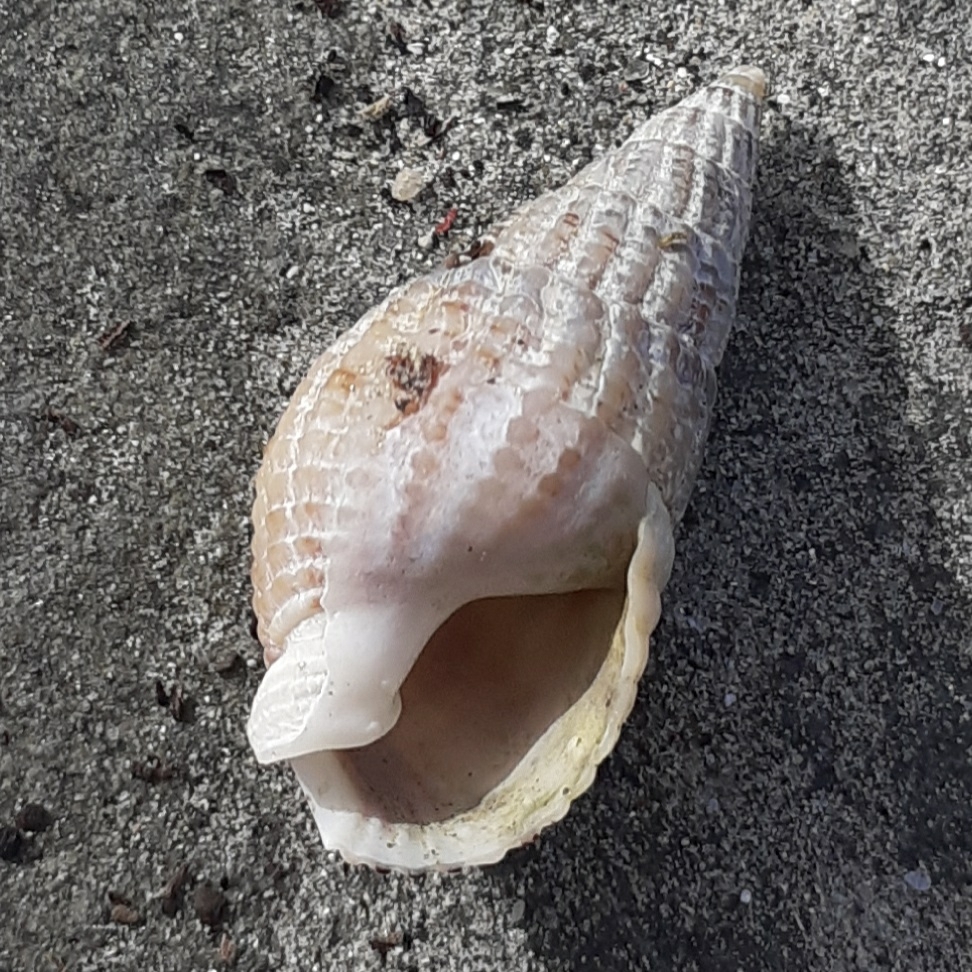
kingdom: Animalia
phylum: Mollusca
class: Gastropoda
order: Neogastropoda
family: Nassariidae
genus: Tritia
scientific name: Tritia reticulata
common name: Netted dog whelk
